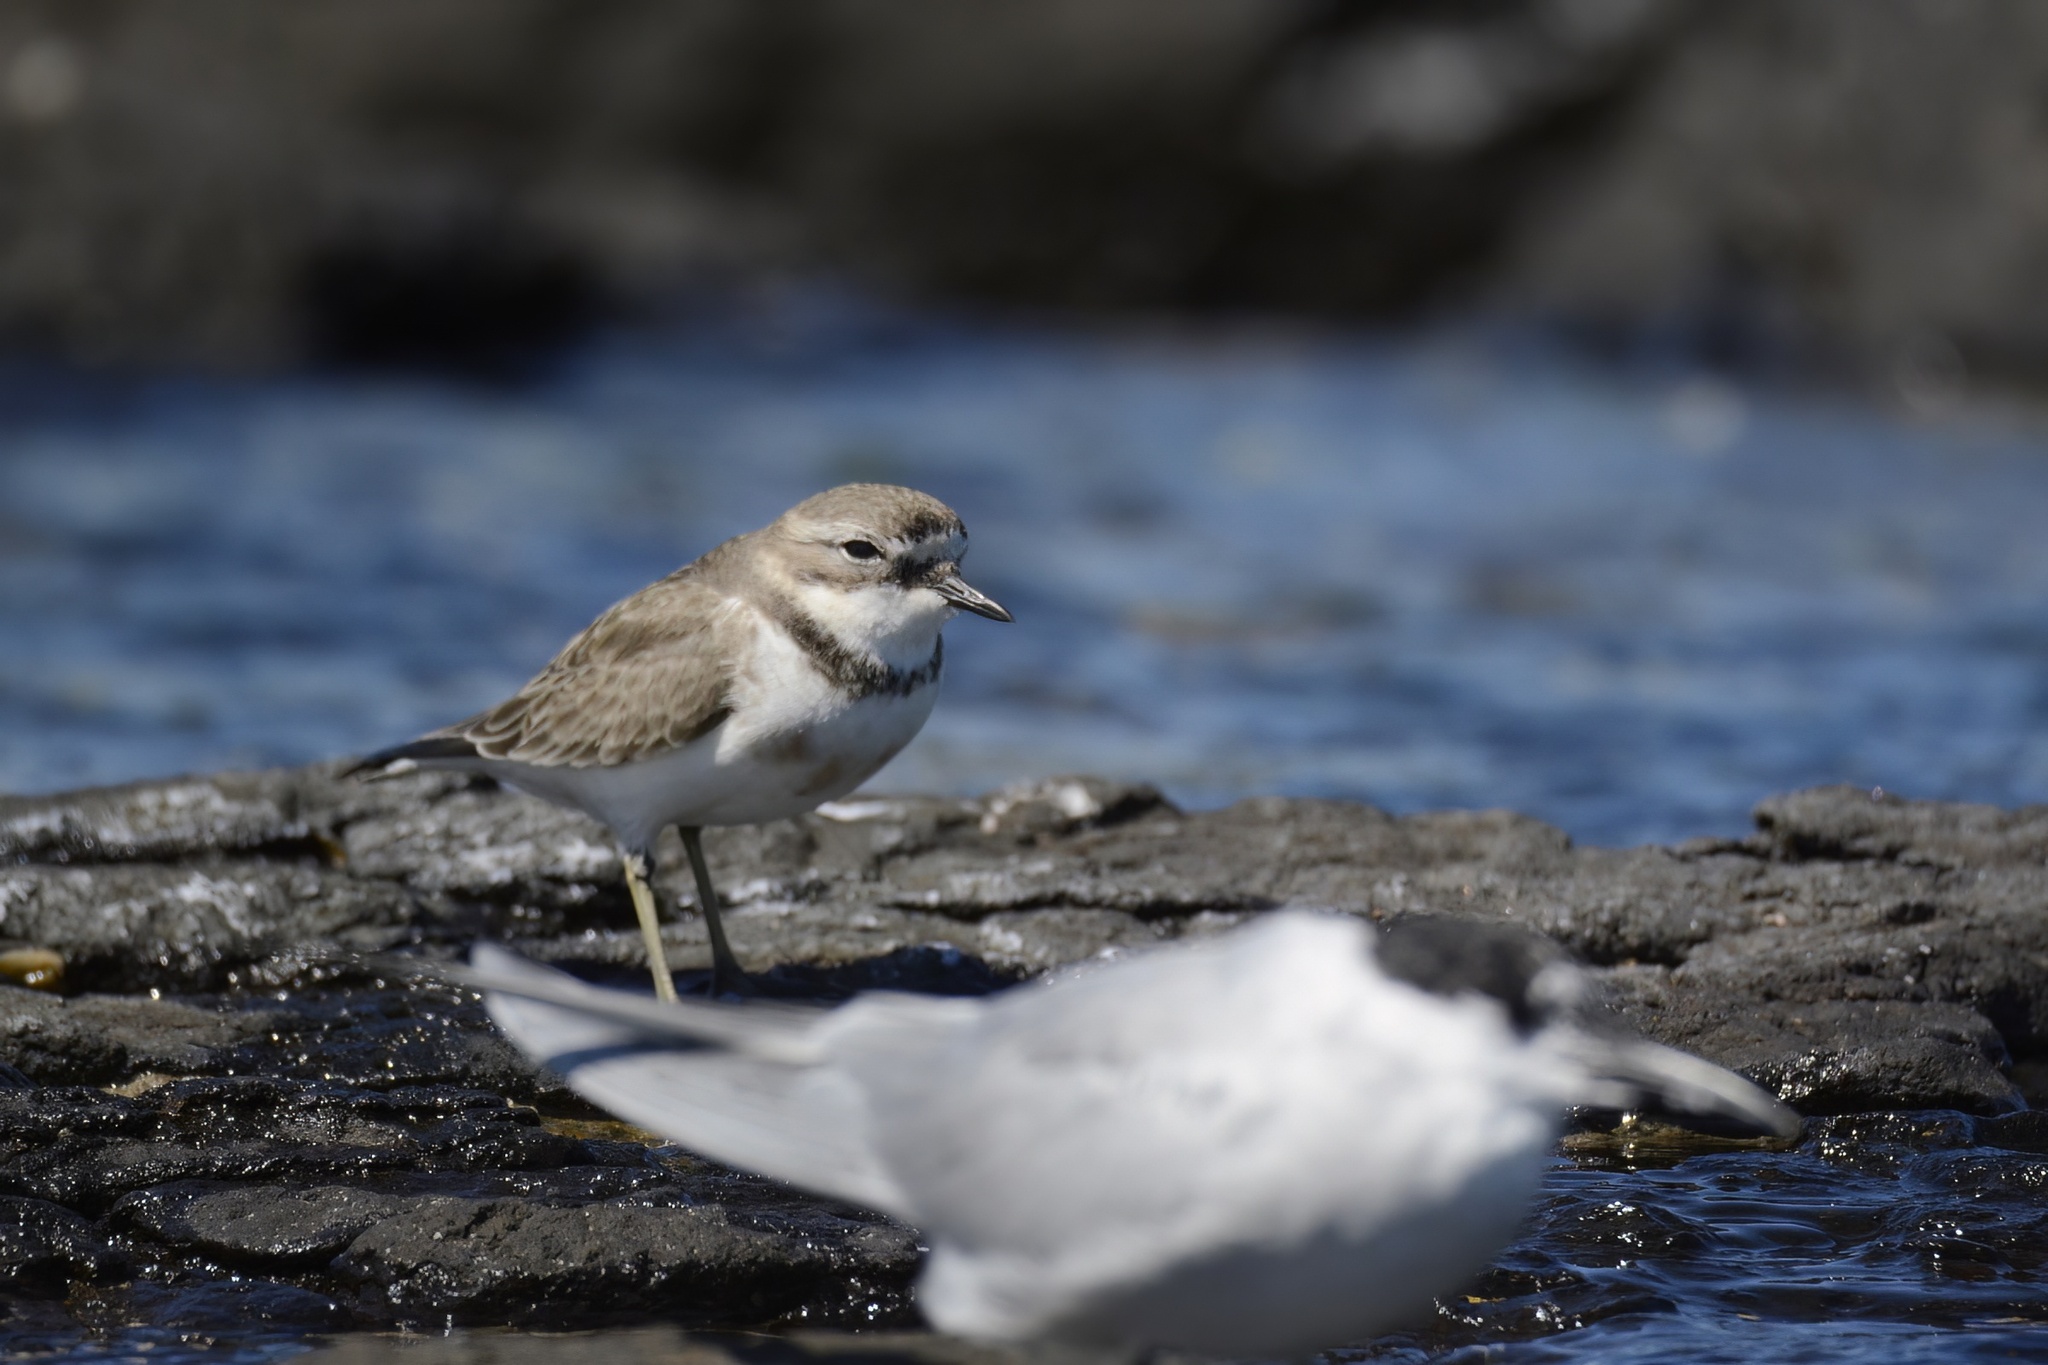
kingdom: Animalia
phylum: Chordata
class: Aves
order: Charadriiformes
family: Charadriidae
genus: Anarhynchus
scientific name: Anarhynchus
